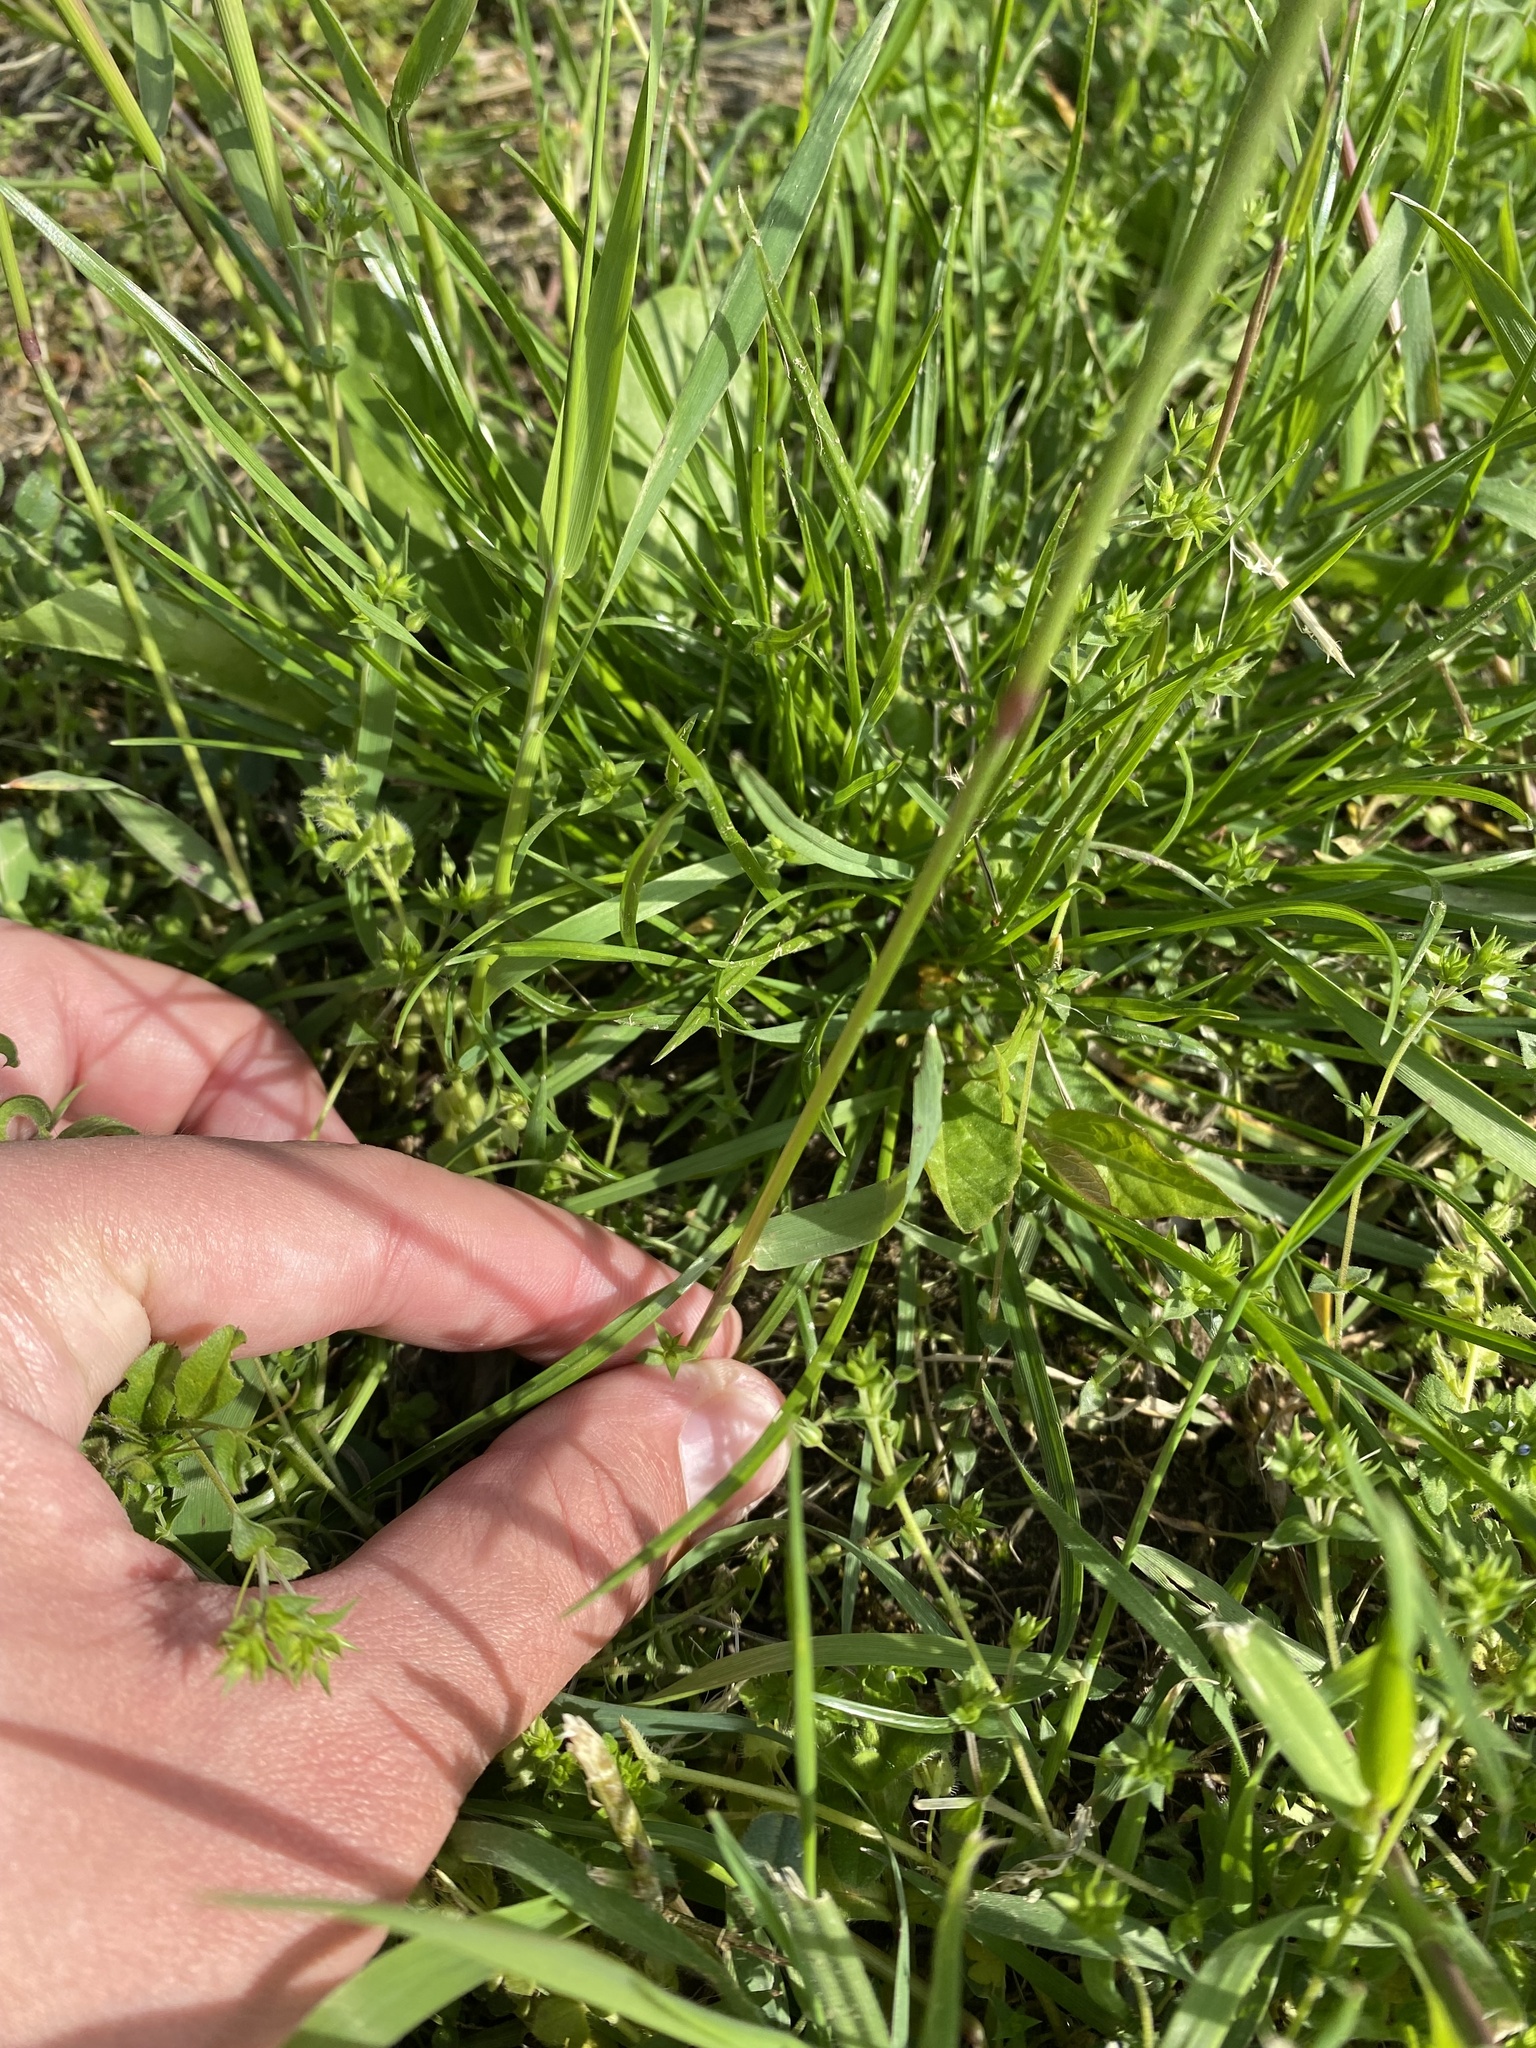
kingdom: Plantae
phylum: Tracheophyta
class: Liliopsida
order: Poales
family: Poaceae
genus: Alopecurus
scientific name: Alopecurus myosuroides
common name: Black-grass
